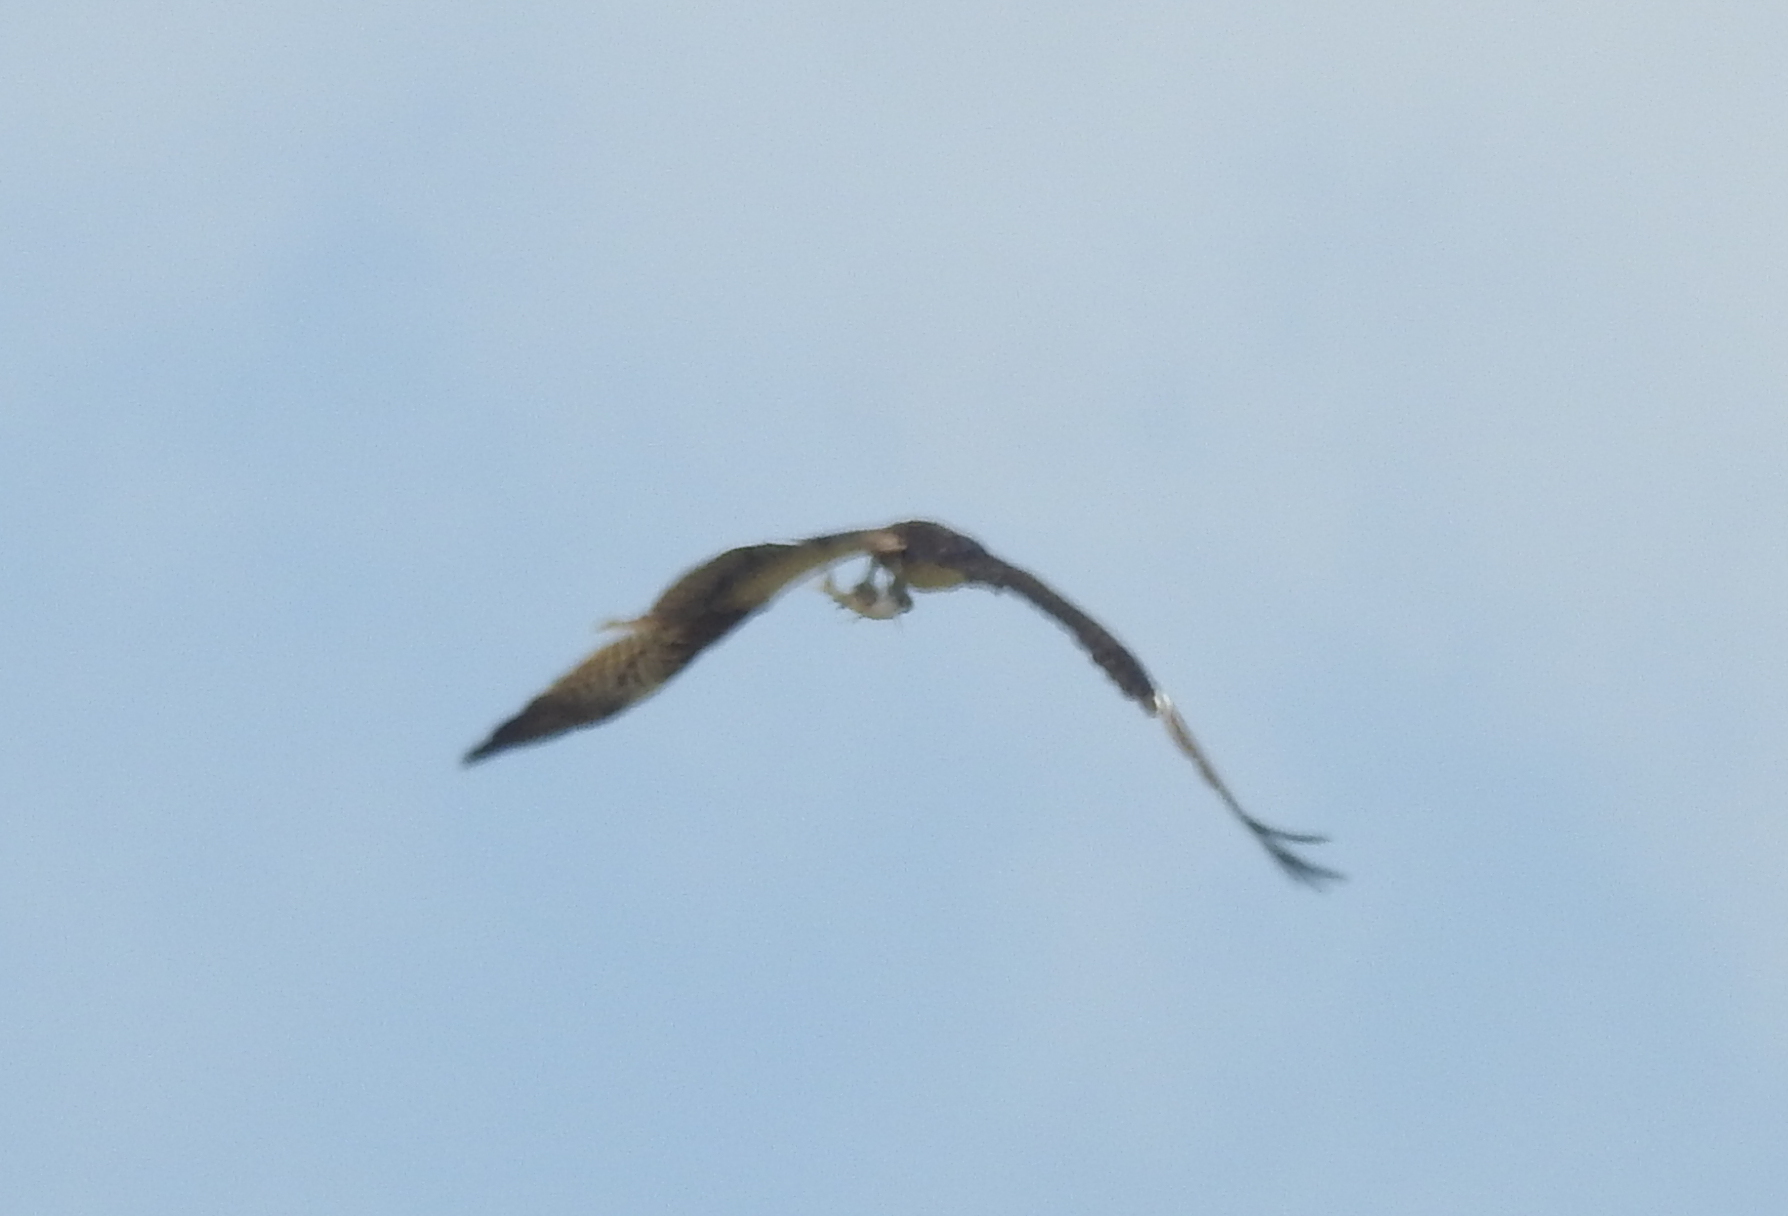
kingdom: Animalia
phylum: Chordata
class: Aves
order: Accipitriformes
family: Pandionidae
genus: Pandion
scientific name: Pandion haliaetus
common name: Osprey
